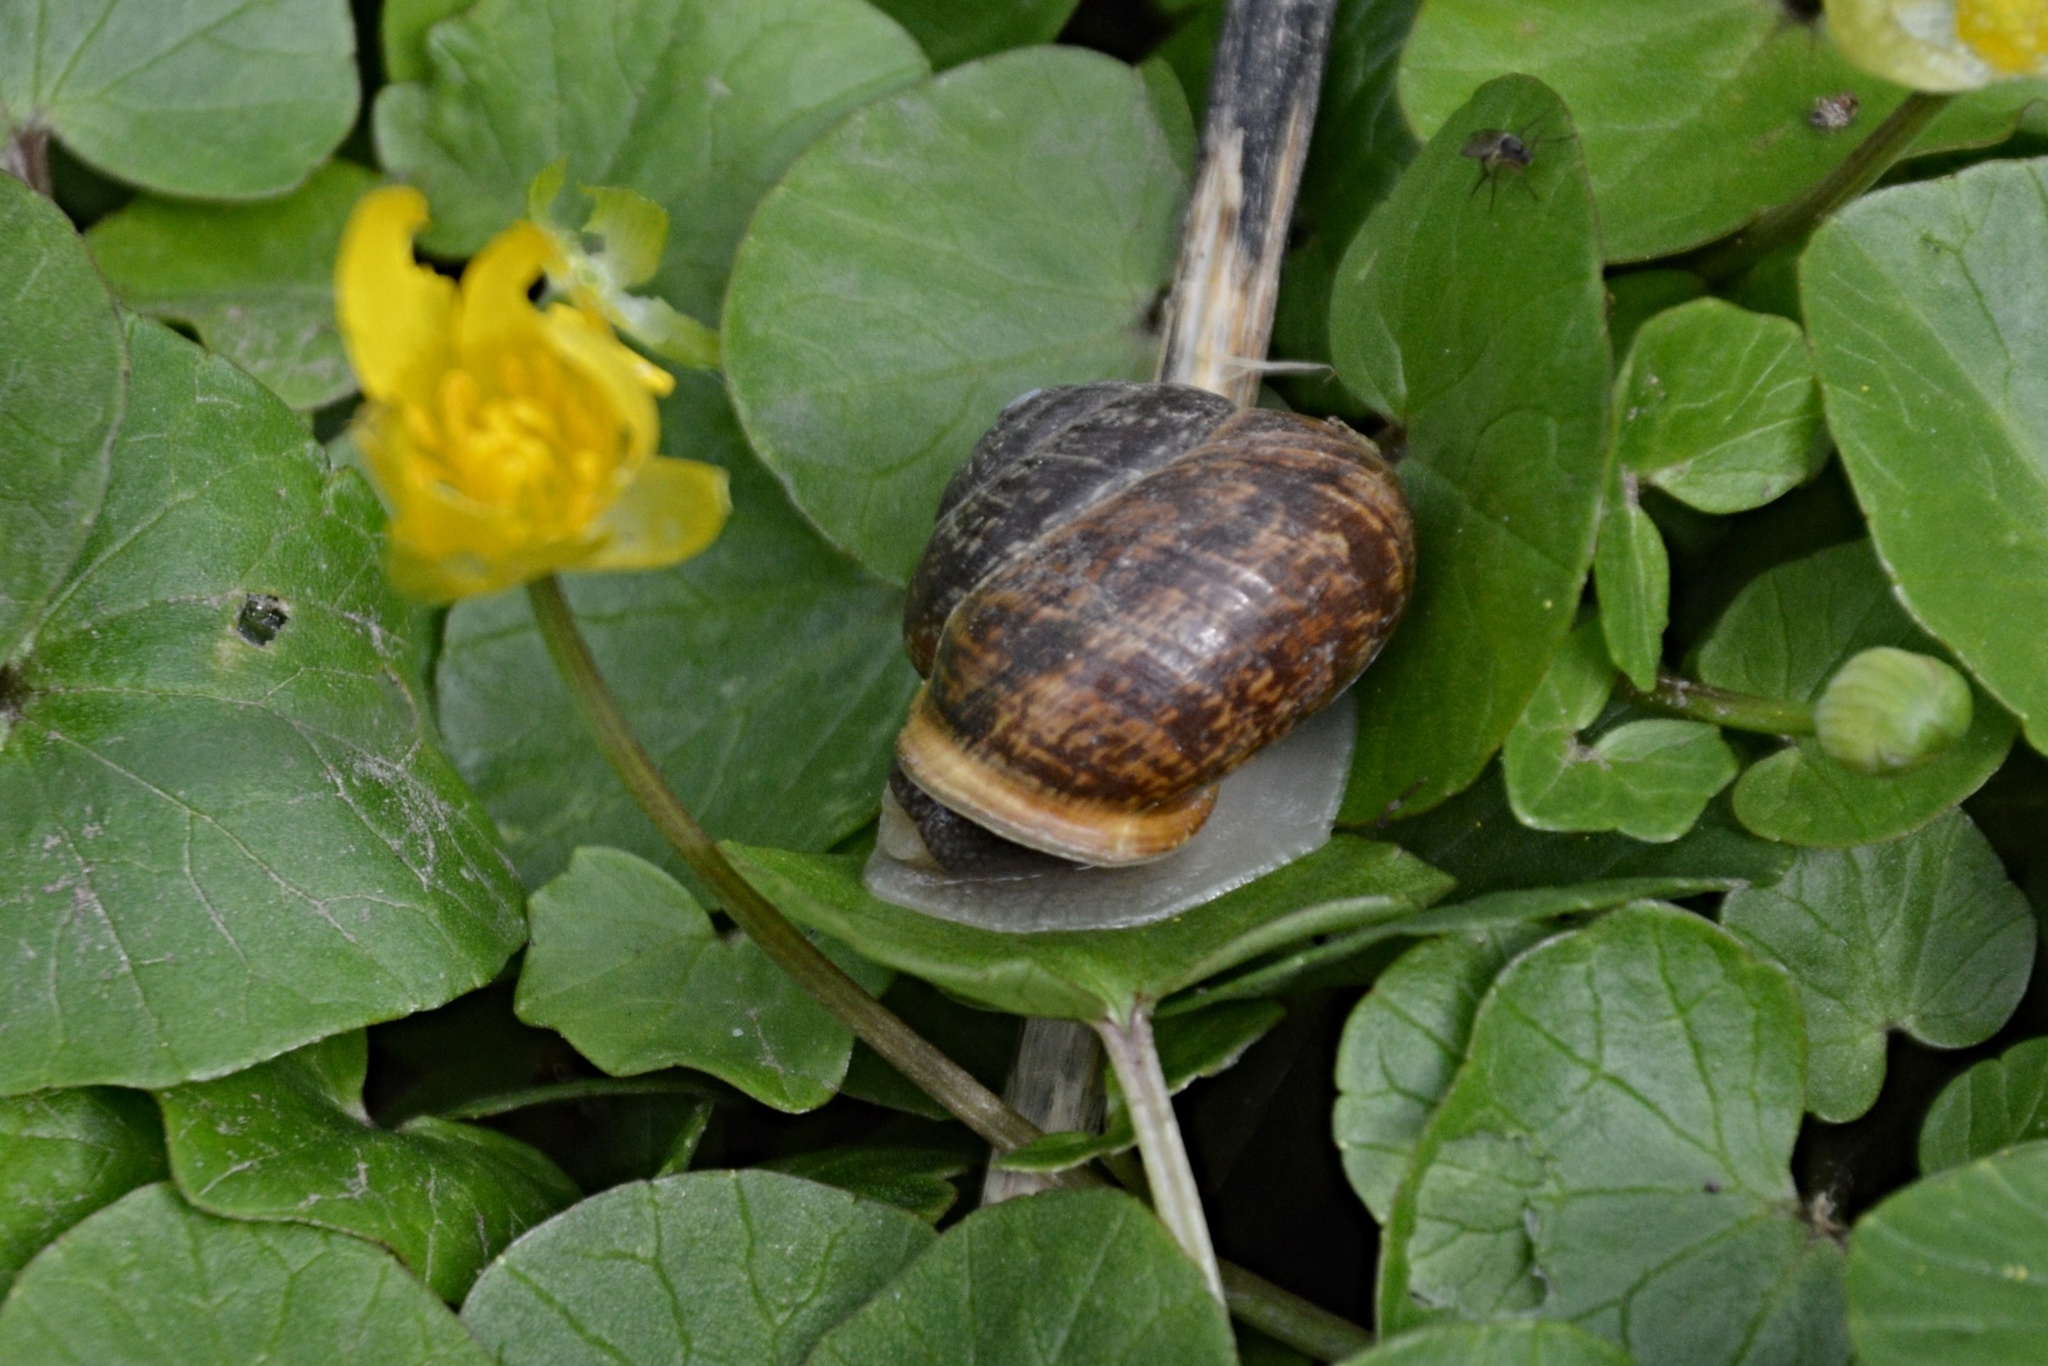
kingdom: Animalia
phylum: Mollusca
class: Gastropoda
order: Stylommatophora
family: Helicidae
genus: Arianta
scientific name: Arianta arbustorum
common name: Copse snail
